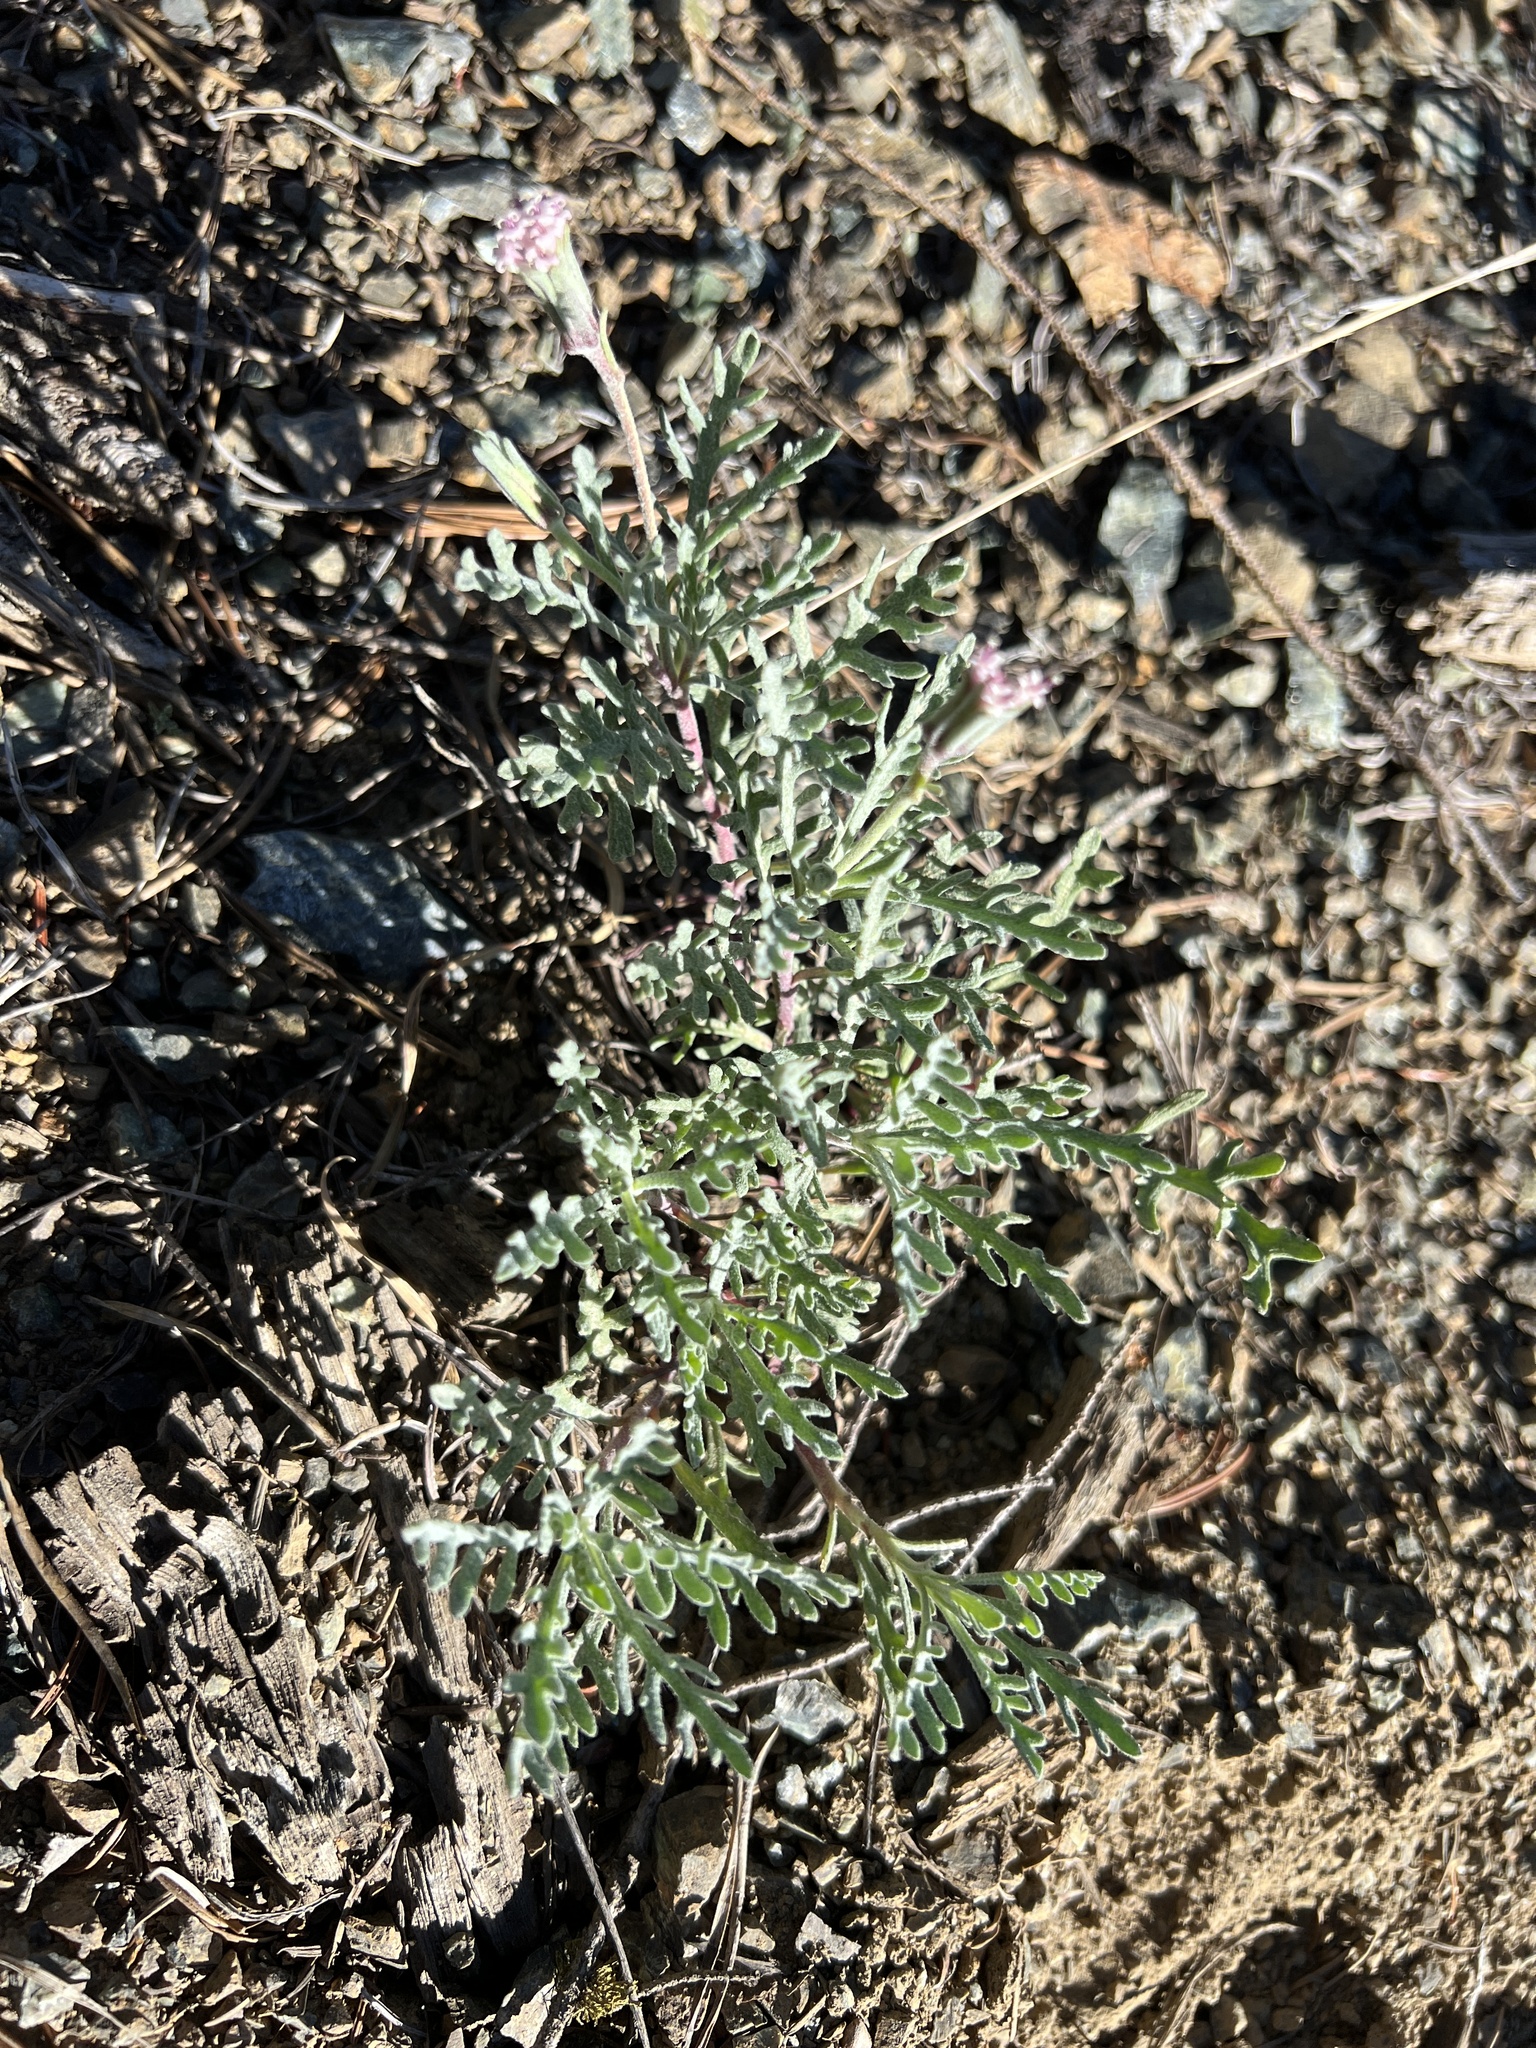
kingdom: Plantae
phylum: Tracheophyta
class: Magnoliopsida
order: Asterales
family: Asteraceae
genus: Chaenactis
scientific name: Chaenactis thompsonii
